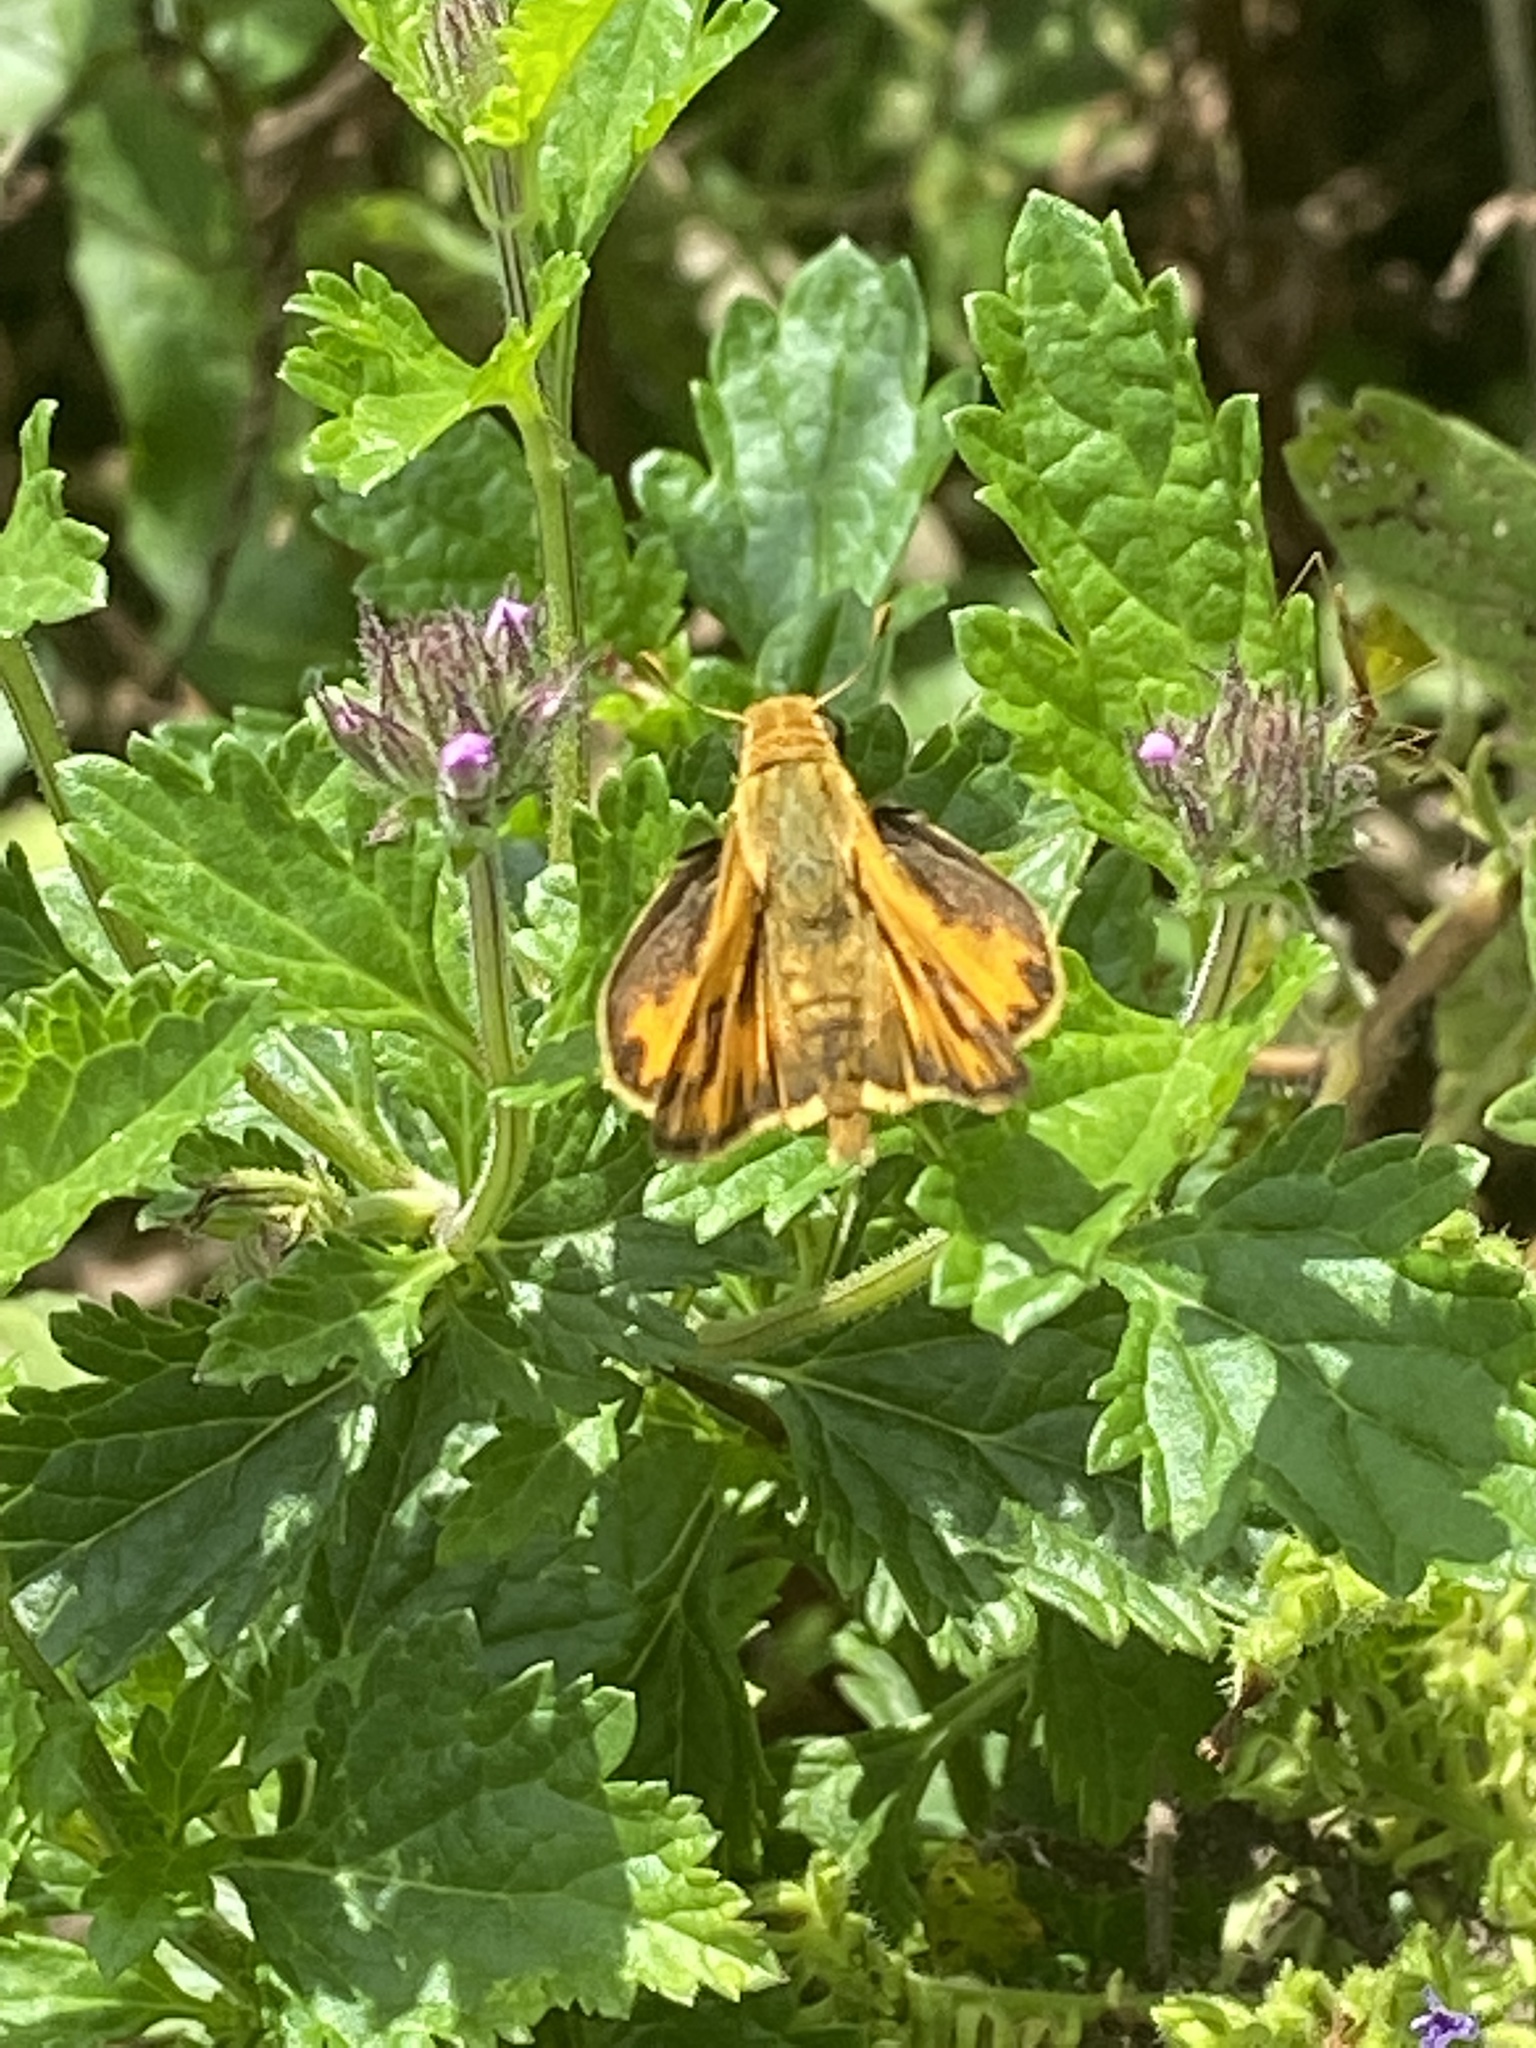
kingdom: Animalia
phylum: Arthropoda
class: Insecta
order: Lepidoptera
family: Hesperiidae
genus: Hylephila
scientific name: Hylephila phyleus
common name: Fiery skipper
